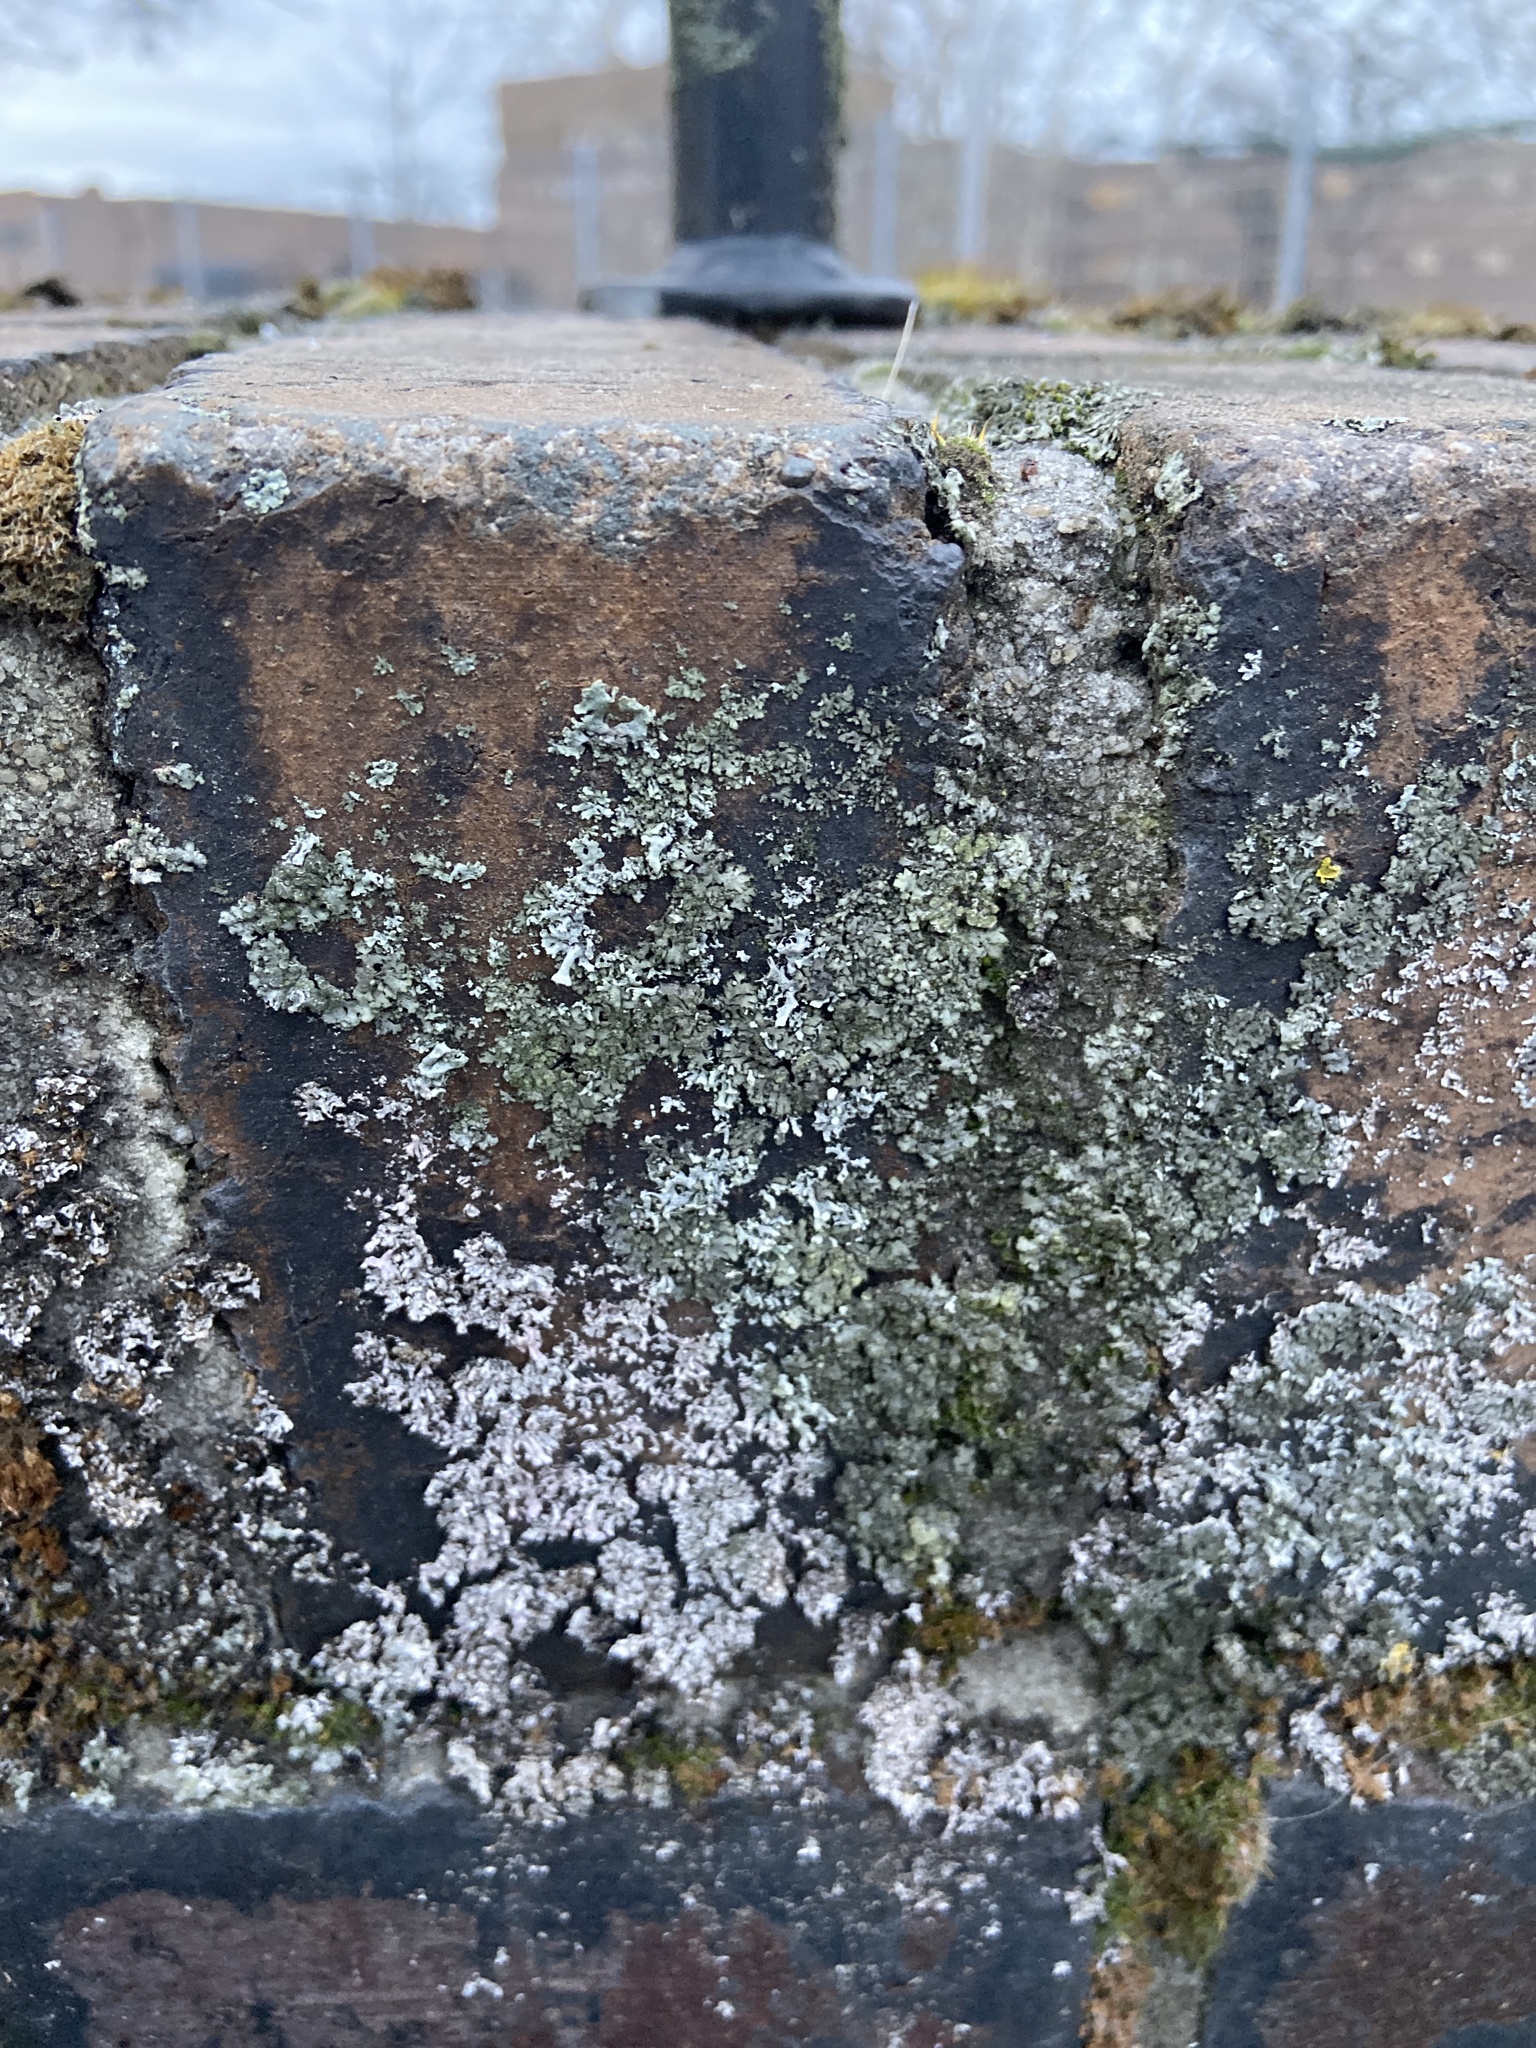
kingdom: Fungi
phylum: Ascomycota
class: Lecanoromycetes
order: Caliciales
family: Physciaceae
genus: Physcia
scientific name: Physcia adscendens
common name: Hooded rosette lichen
